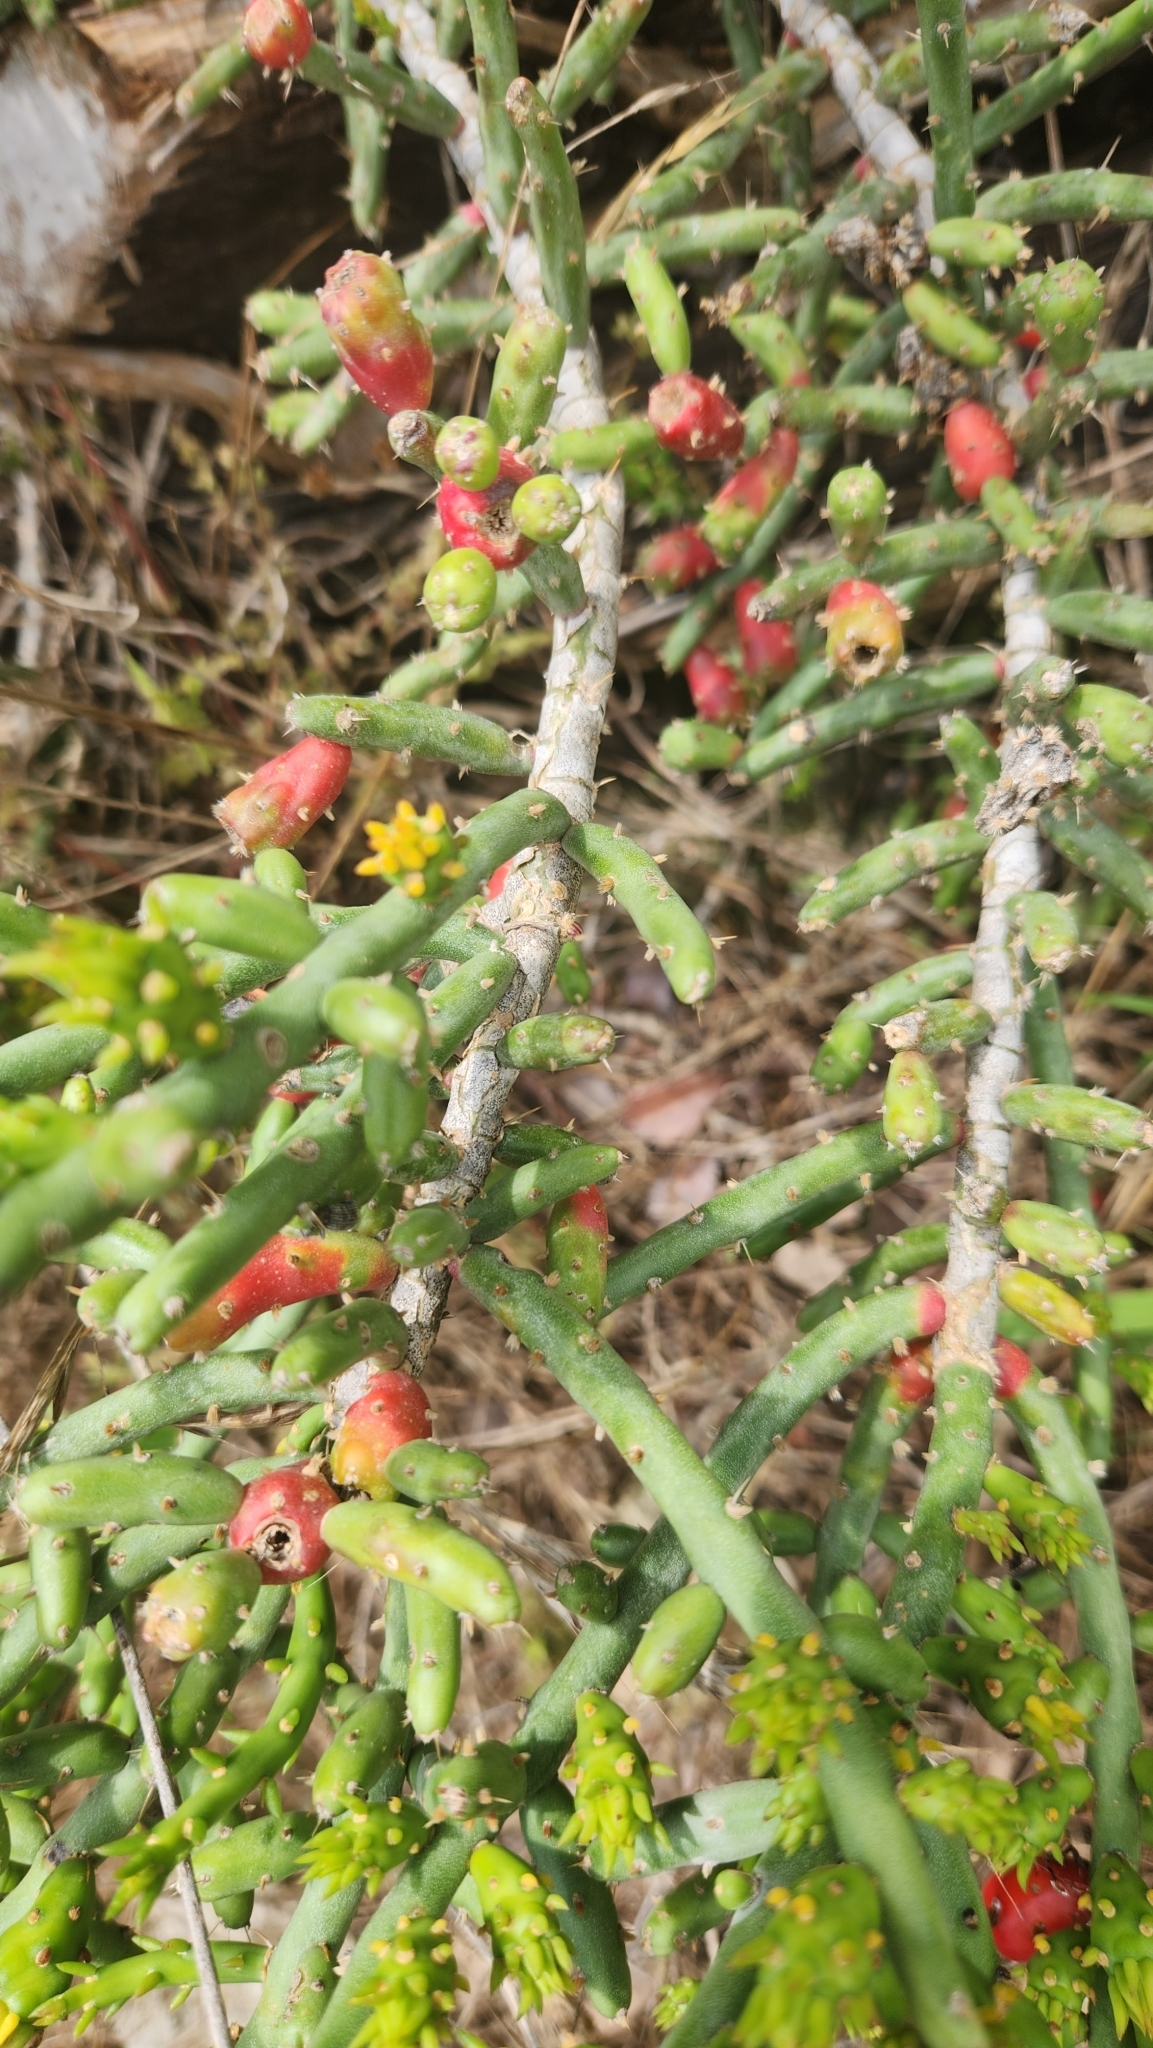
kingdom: Plantae
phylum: Tracheophyta
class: Magnoliopsida
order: Caryophyllales
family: Cactaceae
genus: Cylindropuntia
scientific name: Cylindropuntia leptocaulis
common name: Christmas cactus
